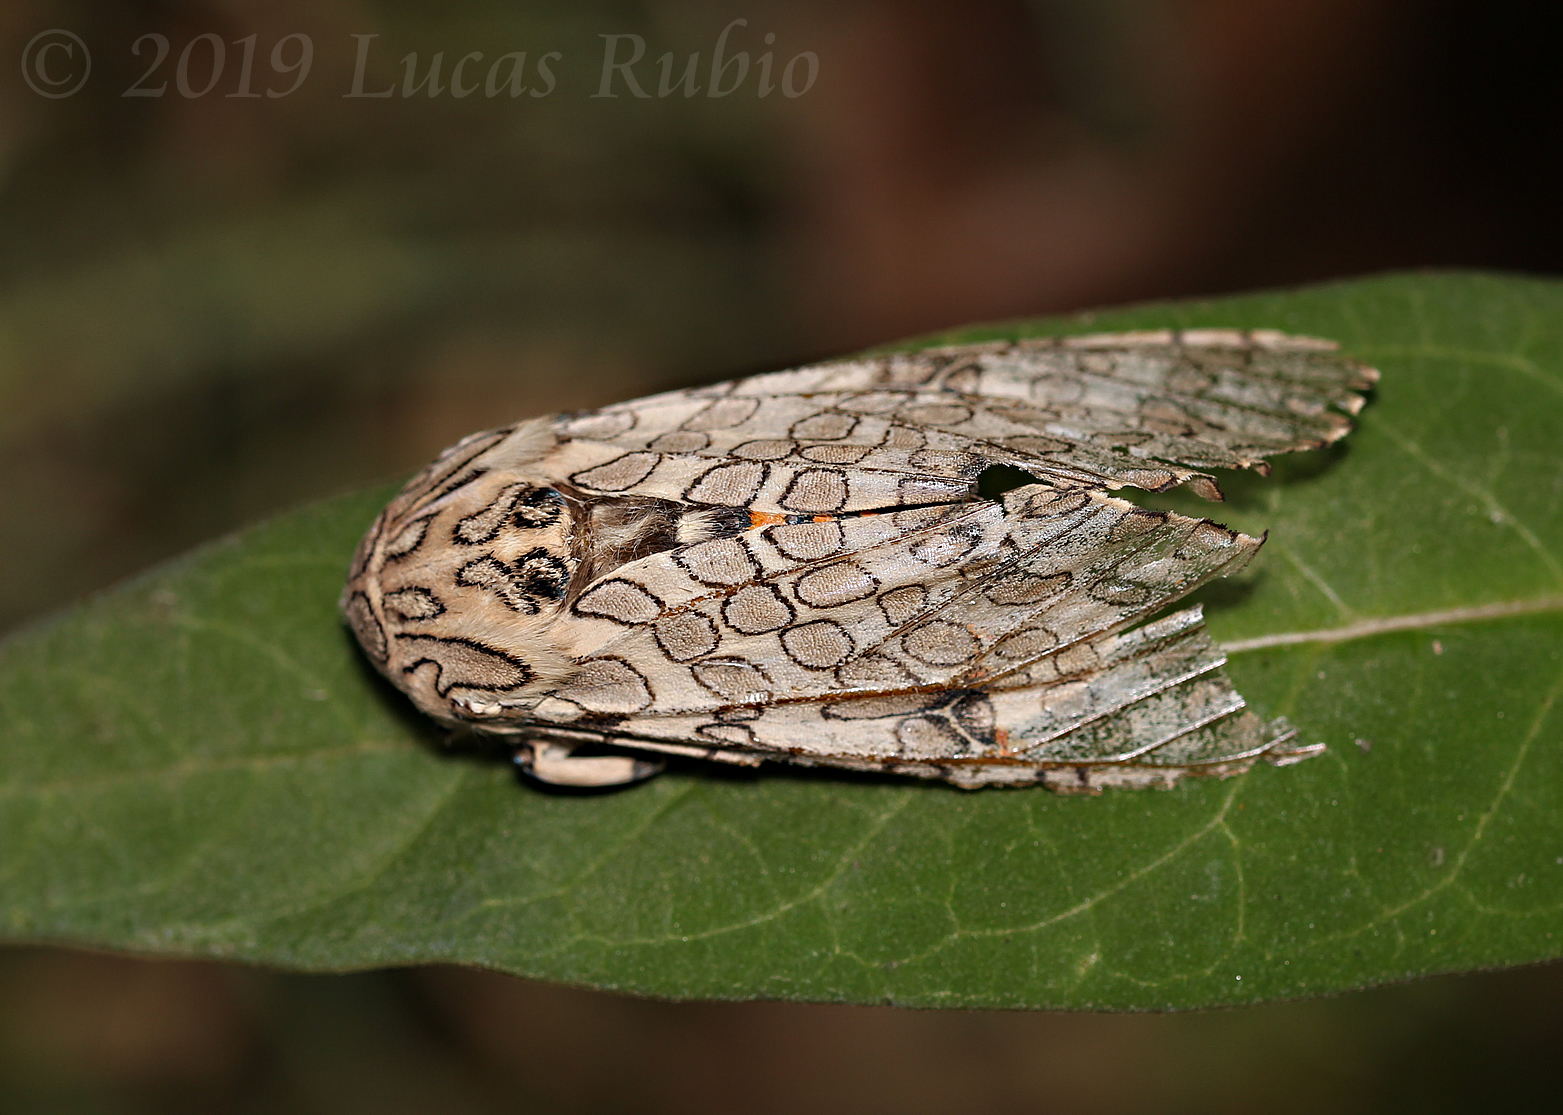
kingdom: Animalia
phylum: Arthropoda
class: Insecta
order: Lepidoptera
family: Erebidae
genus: Hypercompe
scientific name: Hypercompe abdominalis
